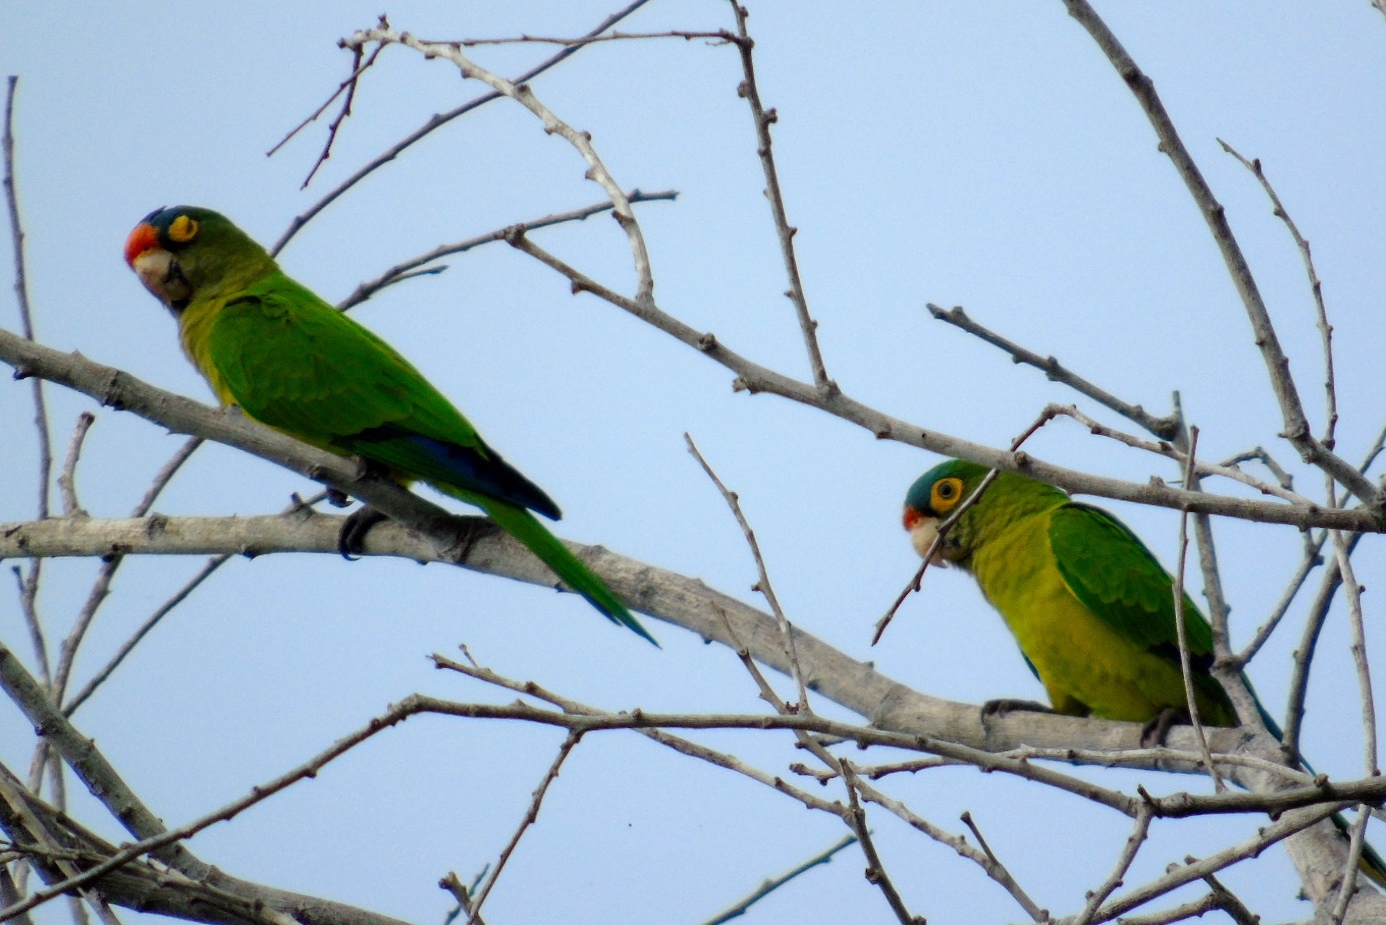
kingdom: Animalia
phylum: Chordata
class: Aves
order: Psittaciformes
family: Psittacidae
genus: Aratinga
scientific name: Aratinga canicularis
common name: Orange-fronted parakeet
